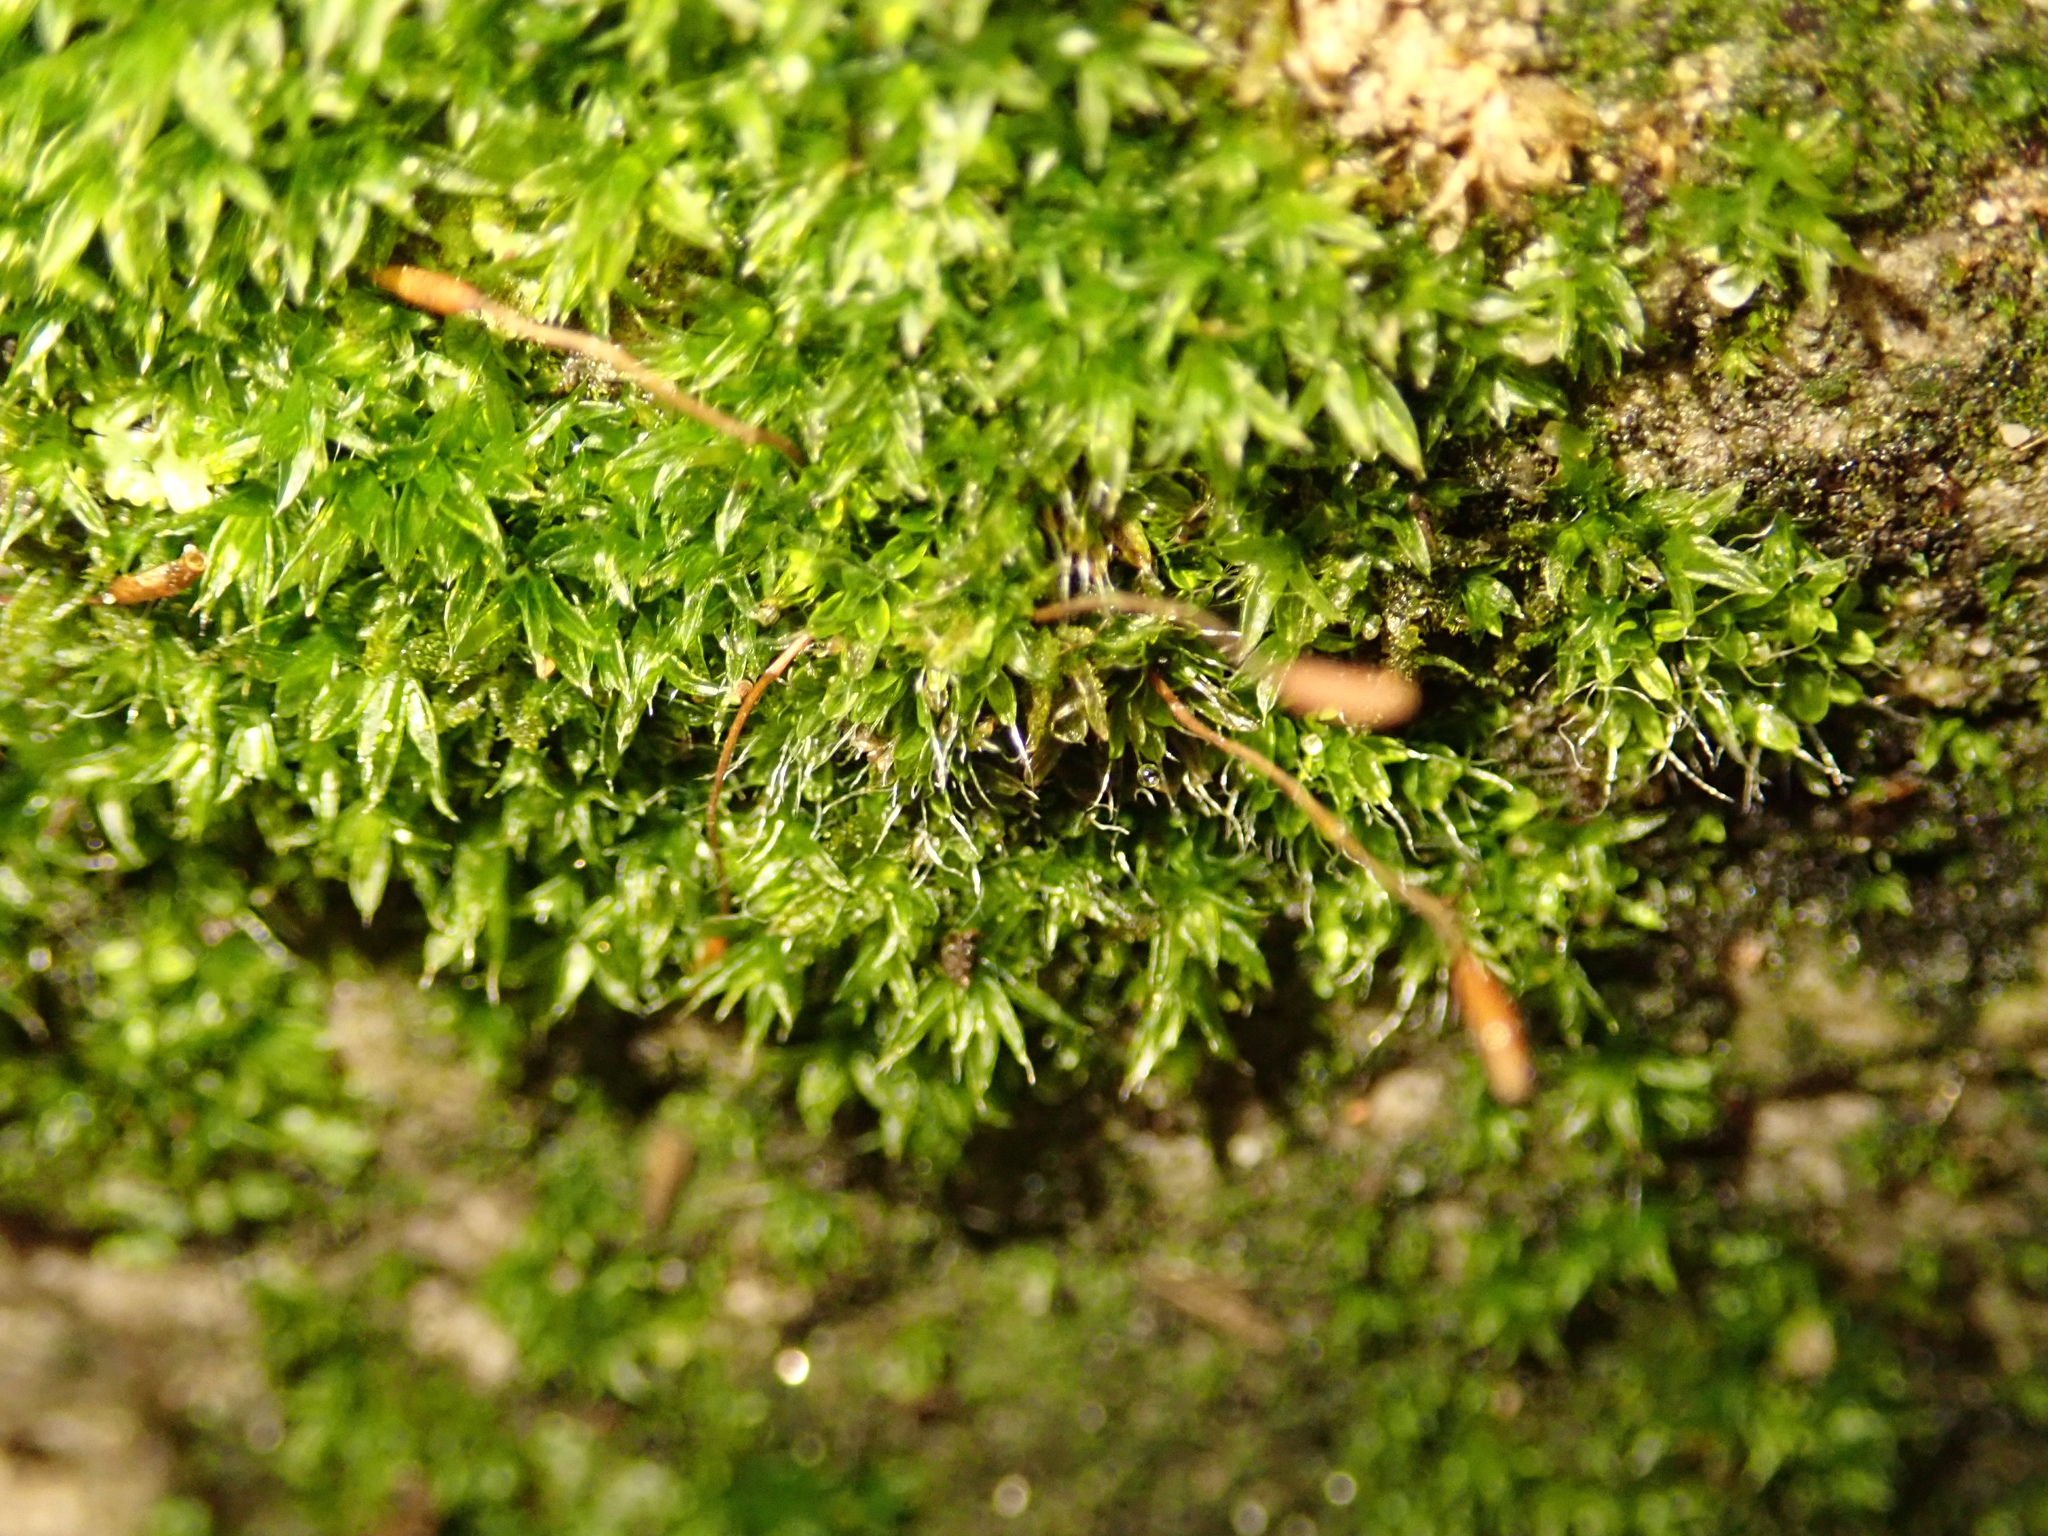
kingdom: Plantae
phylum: Bryophyta
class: Bryopsida
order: Pottiales
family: Pottiaceae
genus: Tortula
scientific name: Tortula muralis
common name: Wall screw-moss
